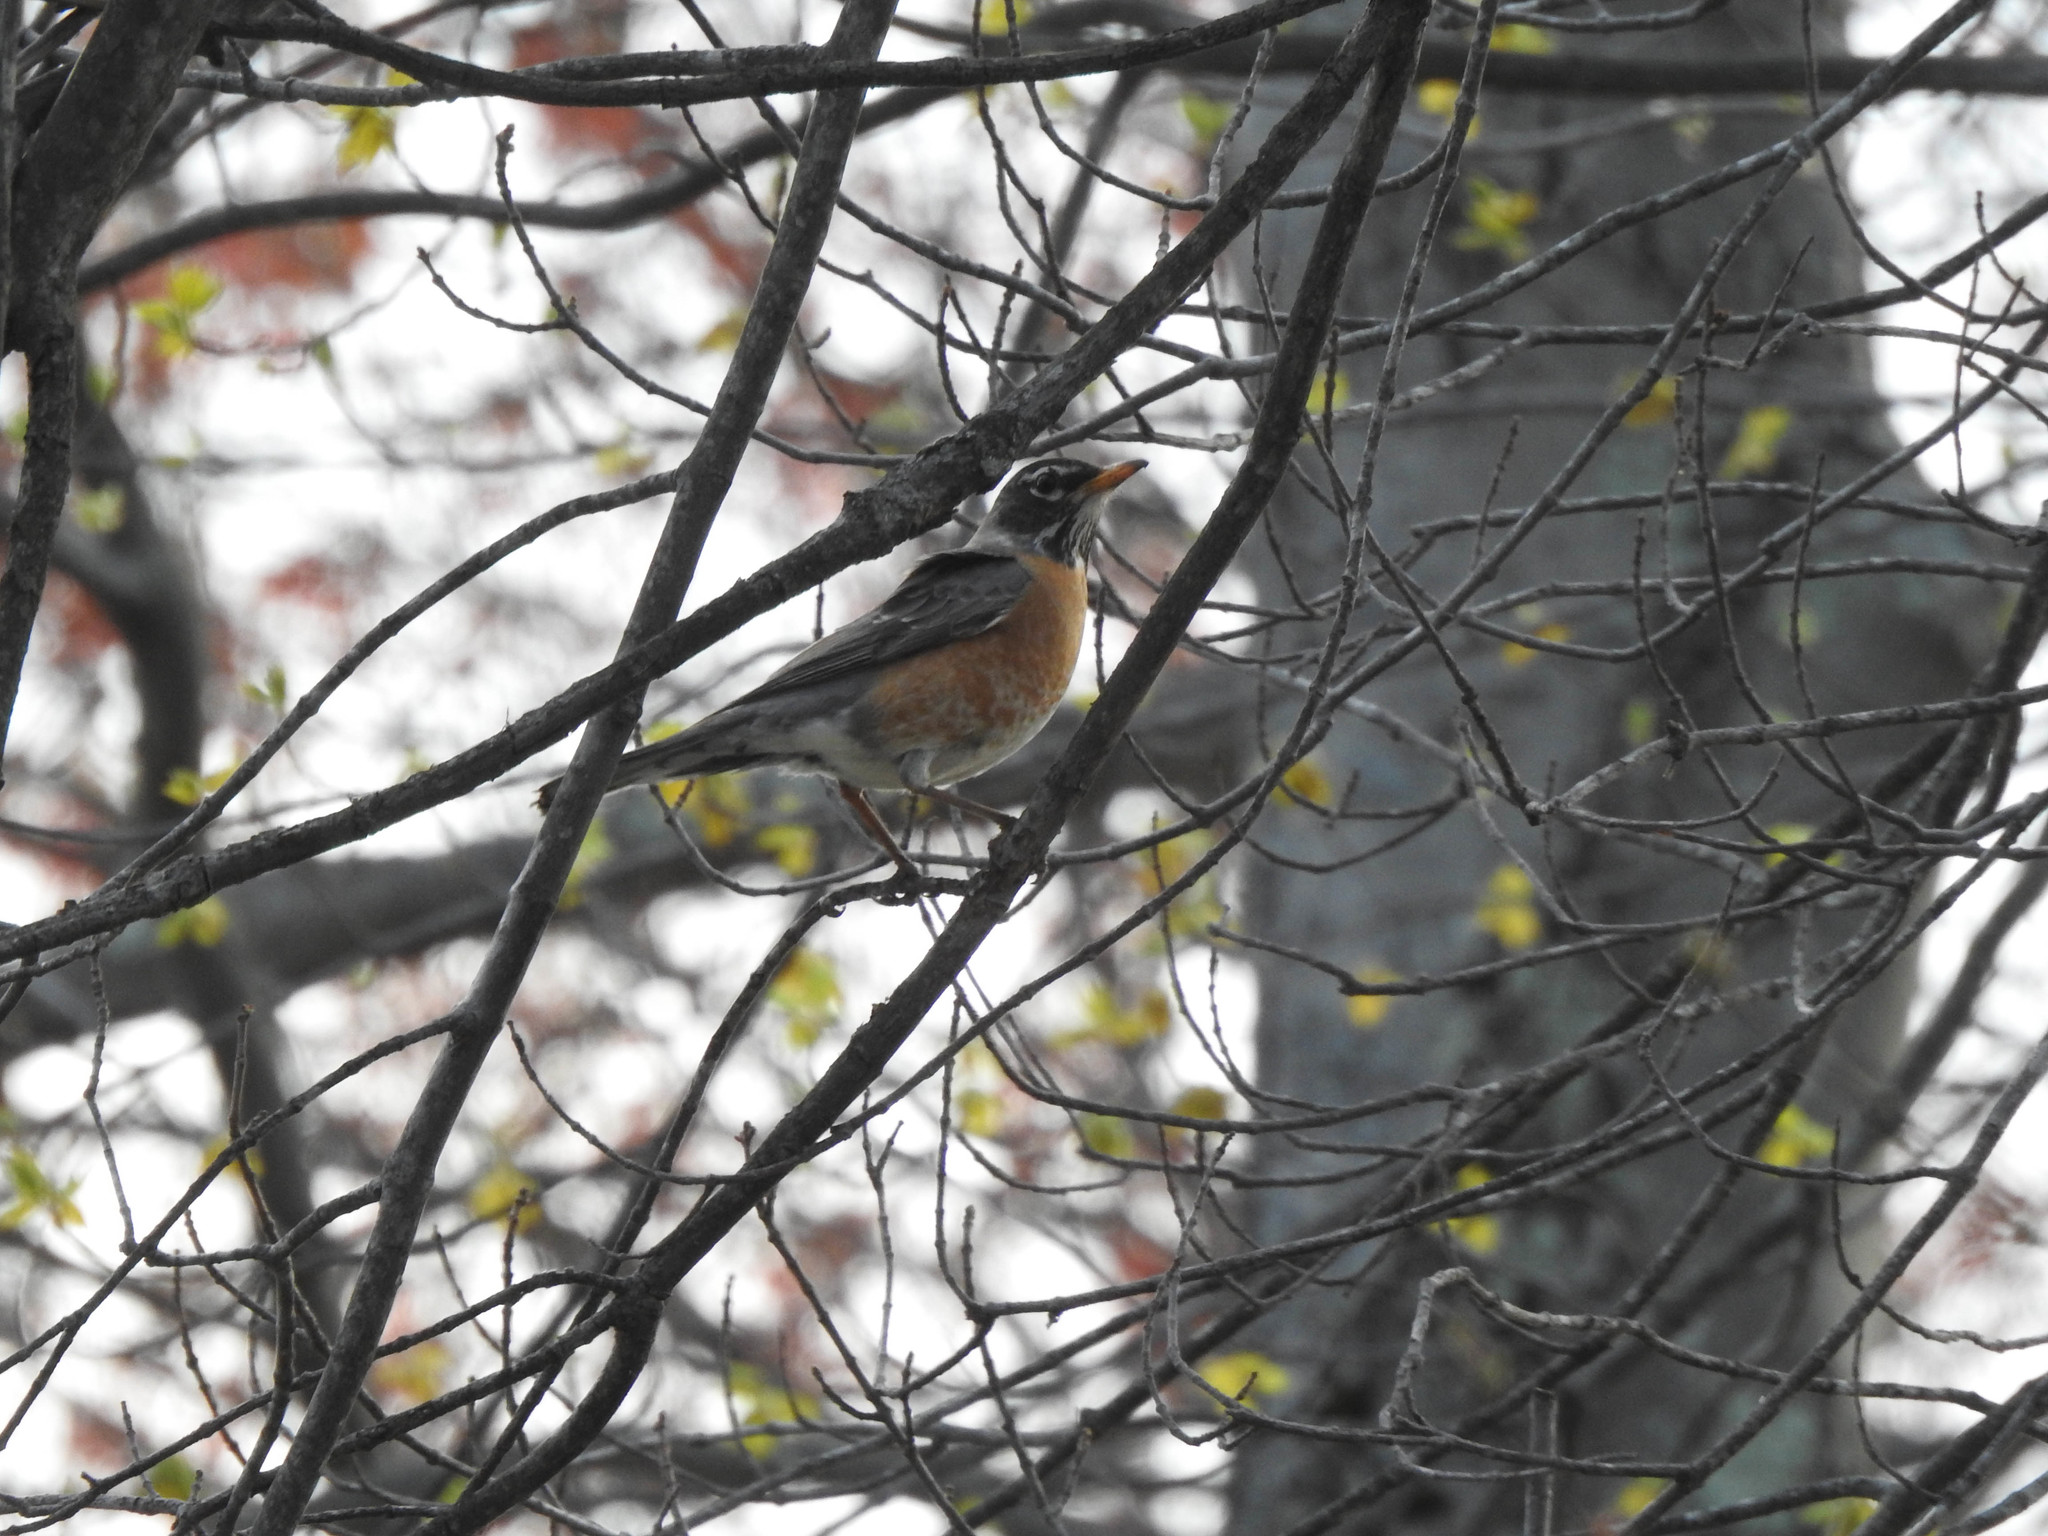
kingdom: Animalia
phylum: Chordata
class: Aves
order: Passeriformes
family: Turdidae
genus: Turdus
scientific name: Turdus migratorius
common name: American robin
